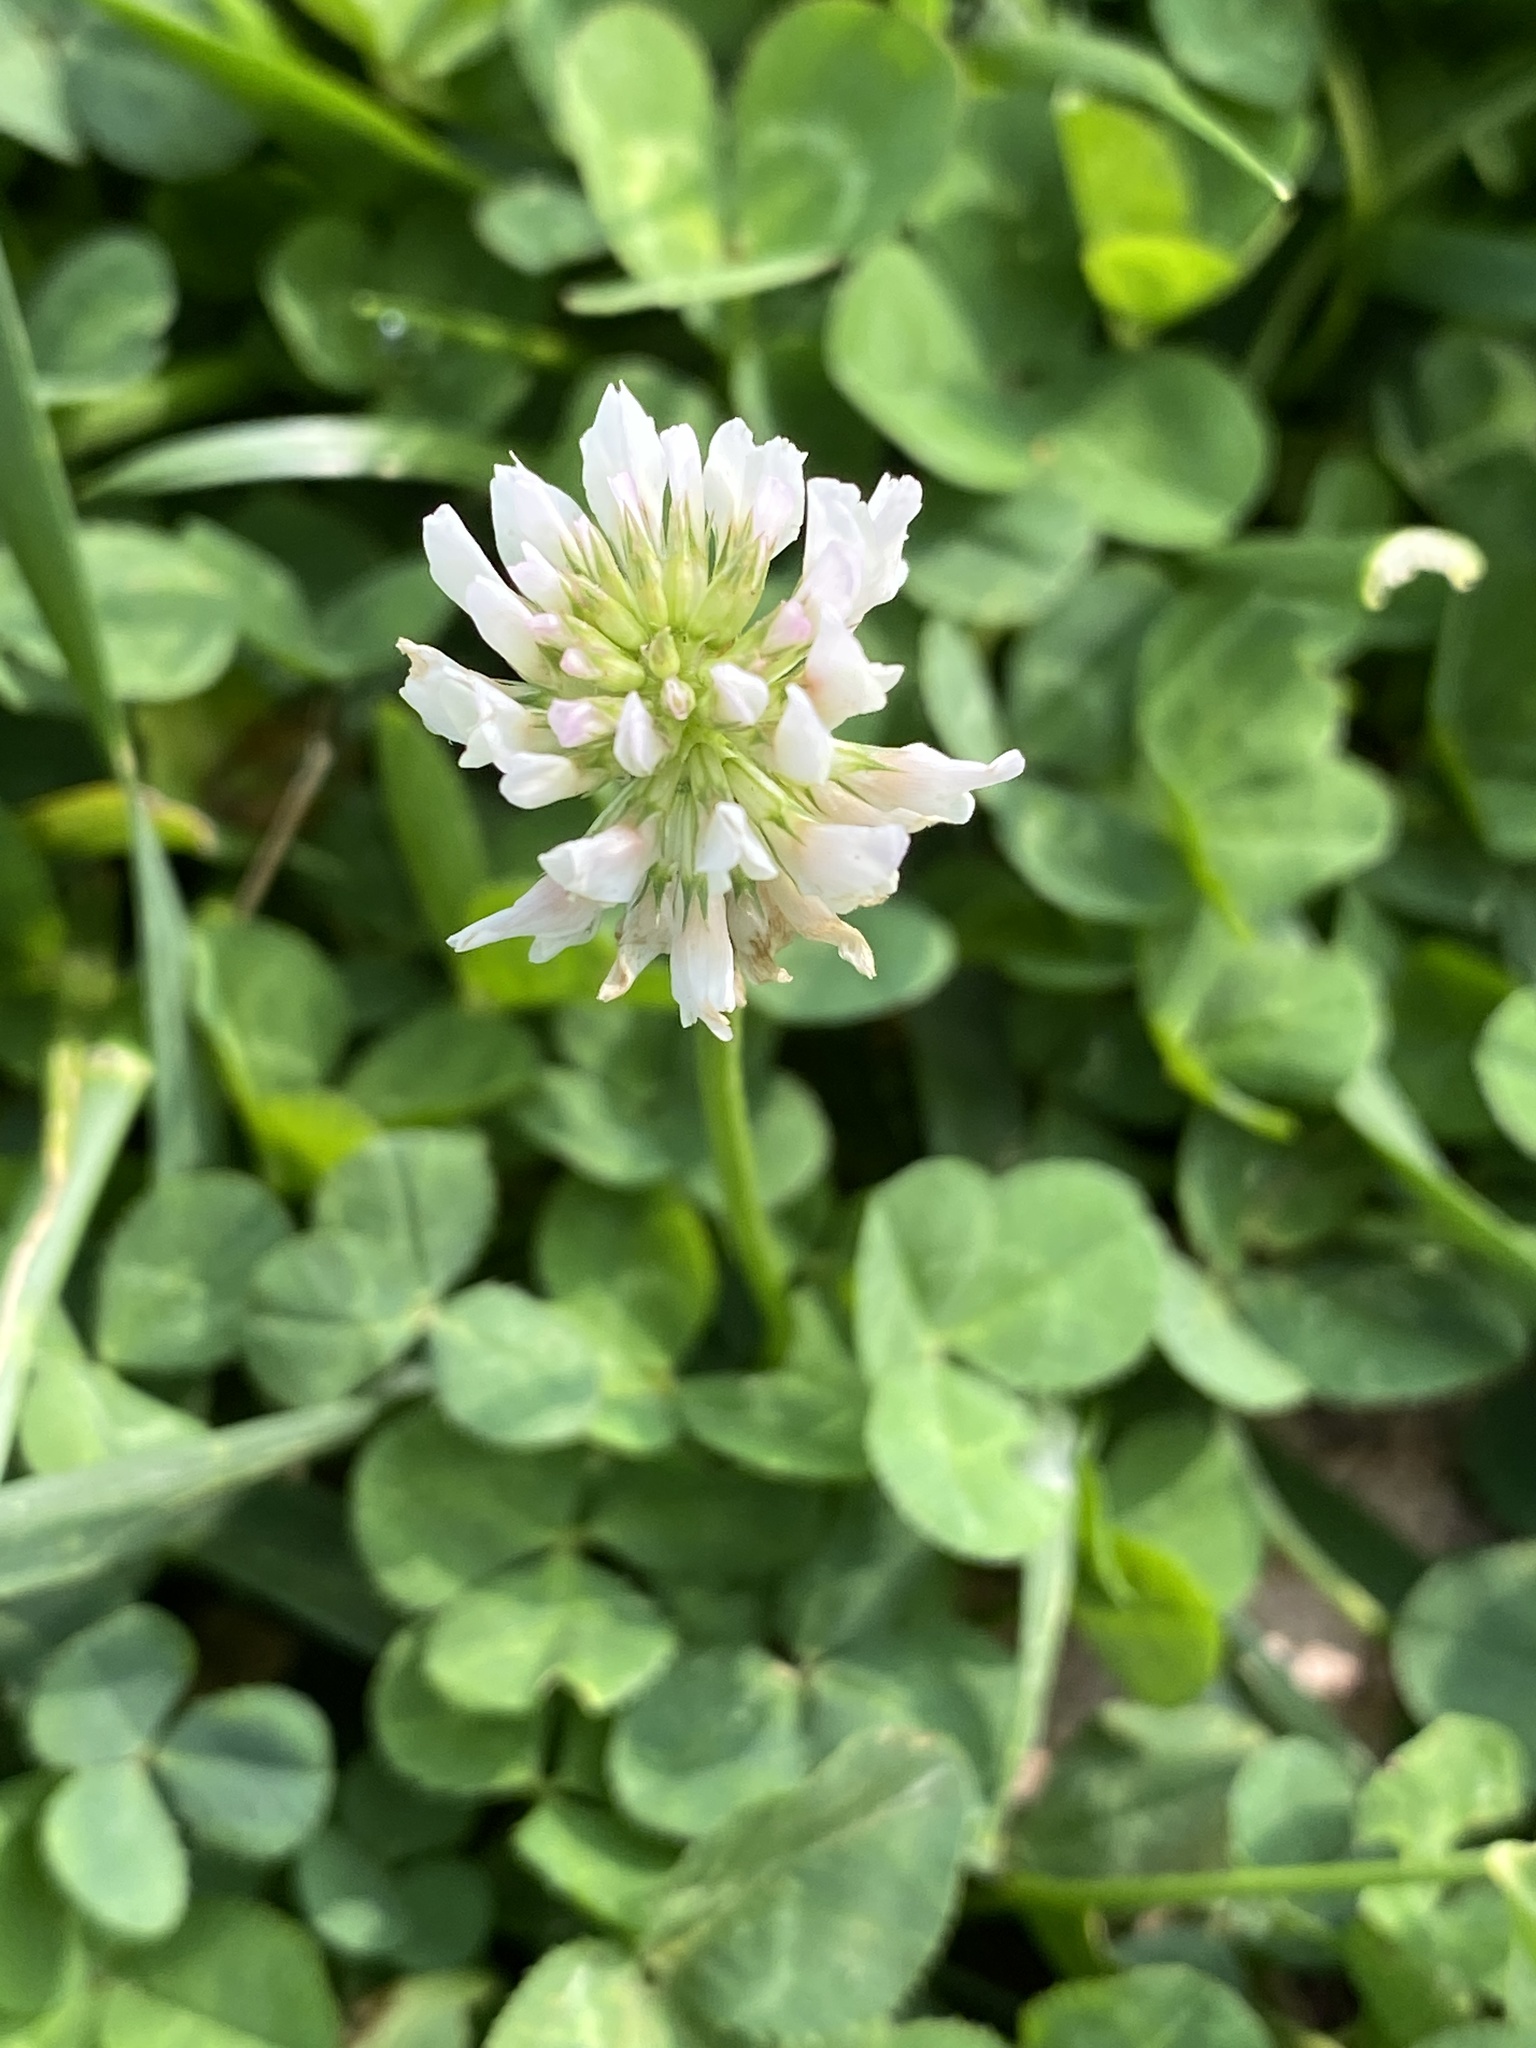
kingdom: Plantae
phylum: Tracheophyta
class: Magnoliopsida
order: Fabales
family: Fabaceae
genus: Trifolium
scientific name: Trifolium repens
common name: White clover
